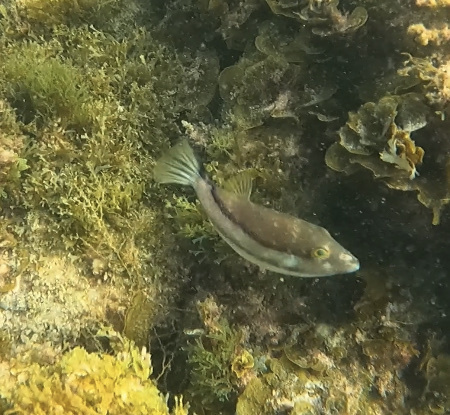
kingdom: Animalia
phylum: Chordata
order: Tetraodontiformes
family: Tetraodontidae
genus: Canthigaster
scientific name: Canthigaster capistrata
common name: Macaronesian sharpnose-puffer
